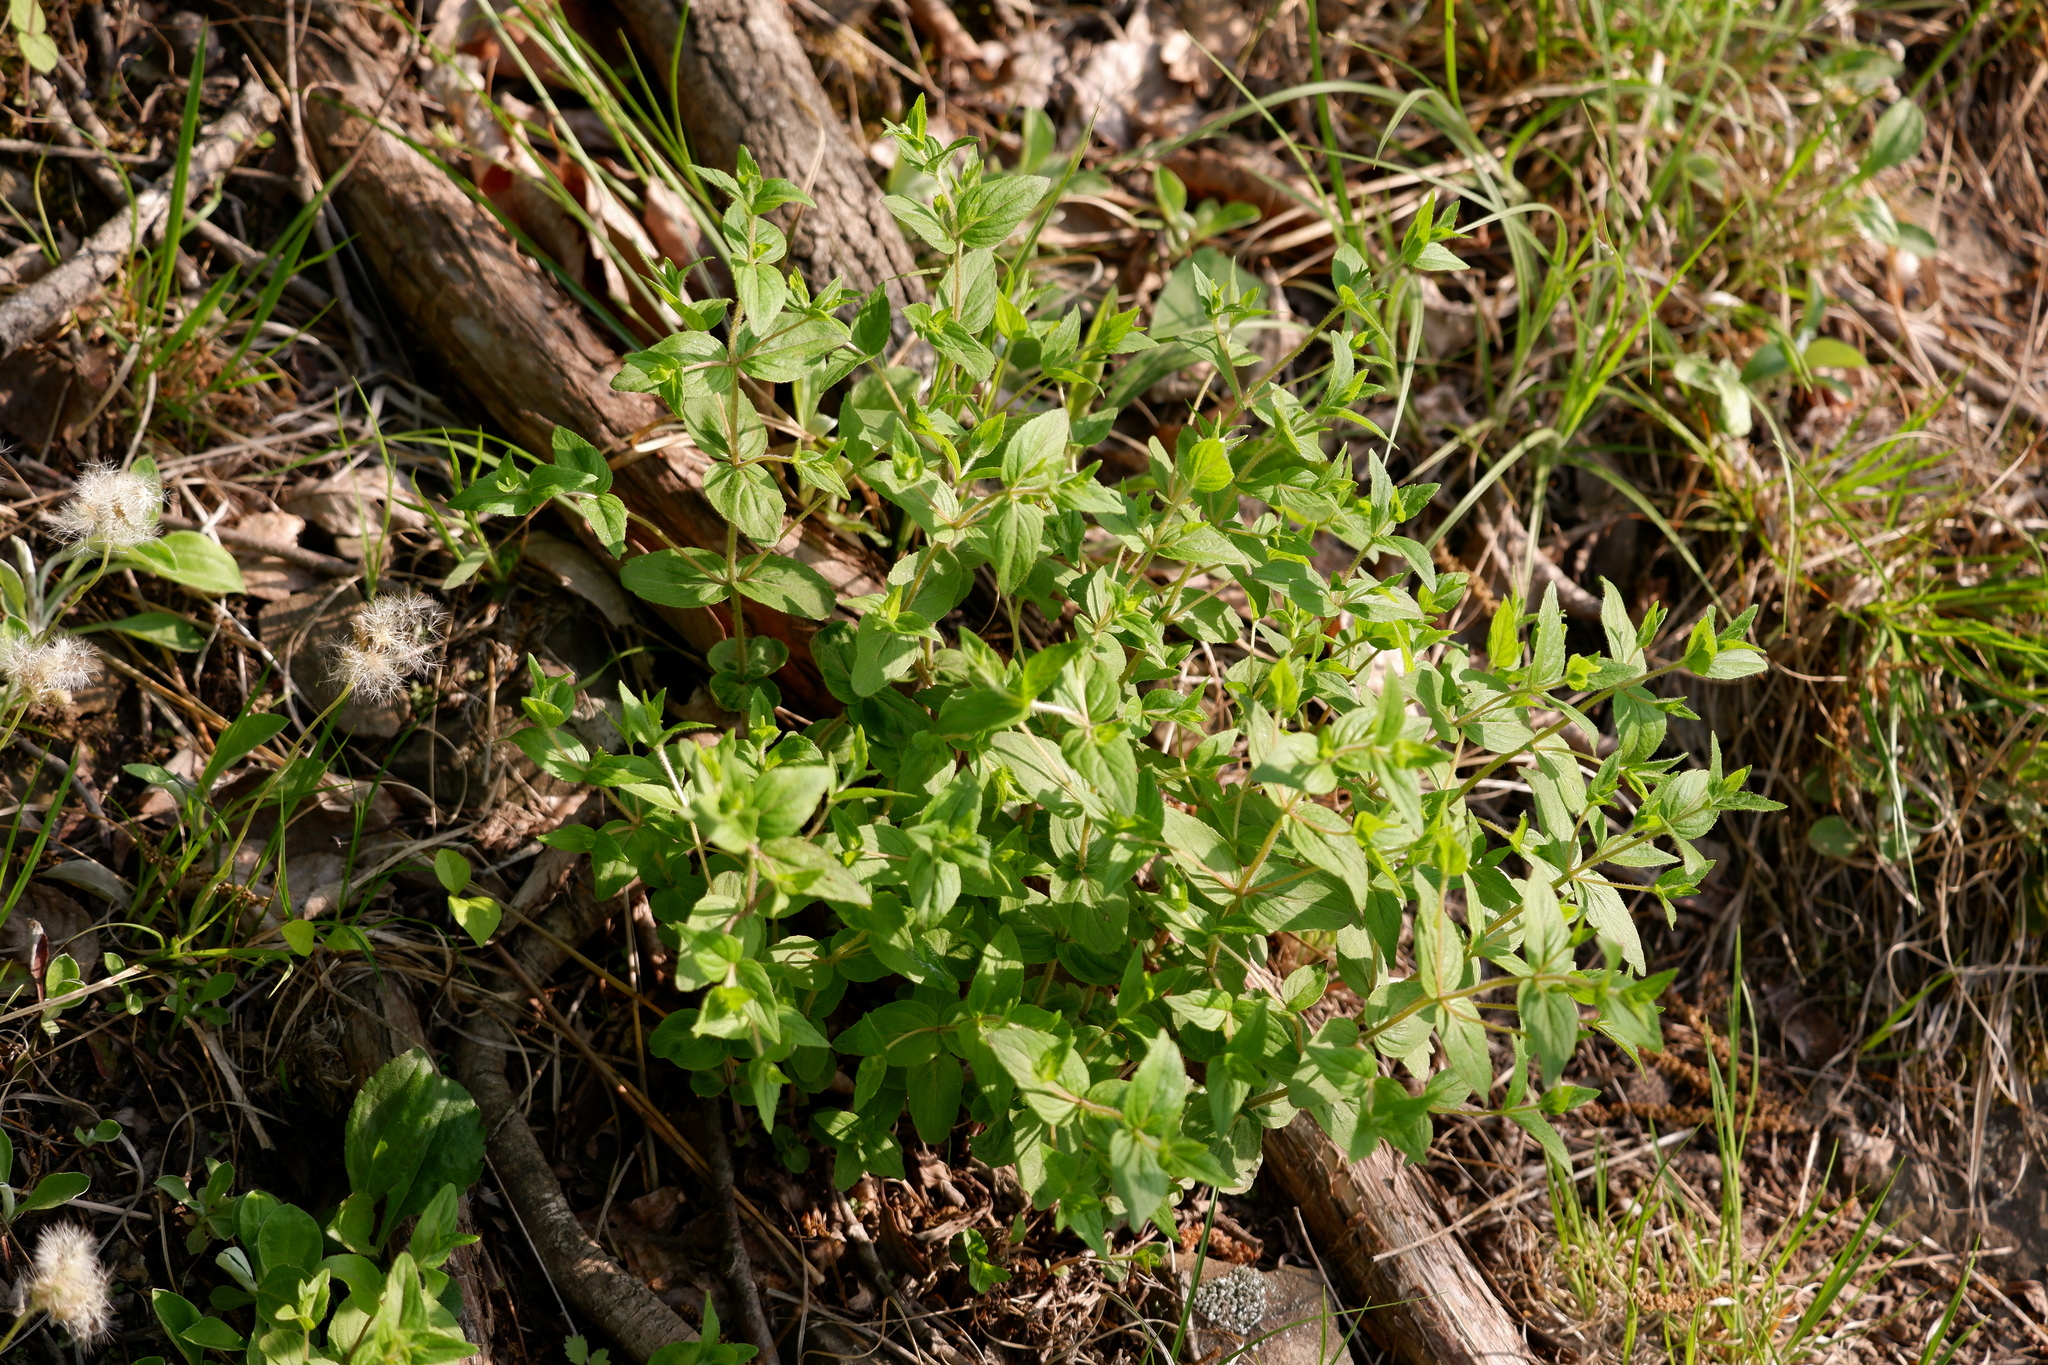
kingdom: Plantae
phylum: Tracheophyta
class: Magnoliopsida
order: Lamiales
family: Lamiaceae
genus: Cunila
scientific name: Cunila origanoides
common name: American dittany
